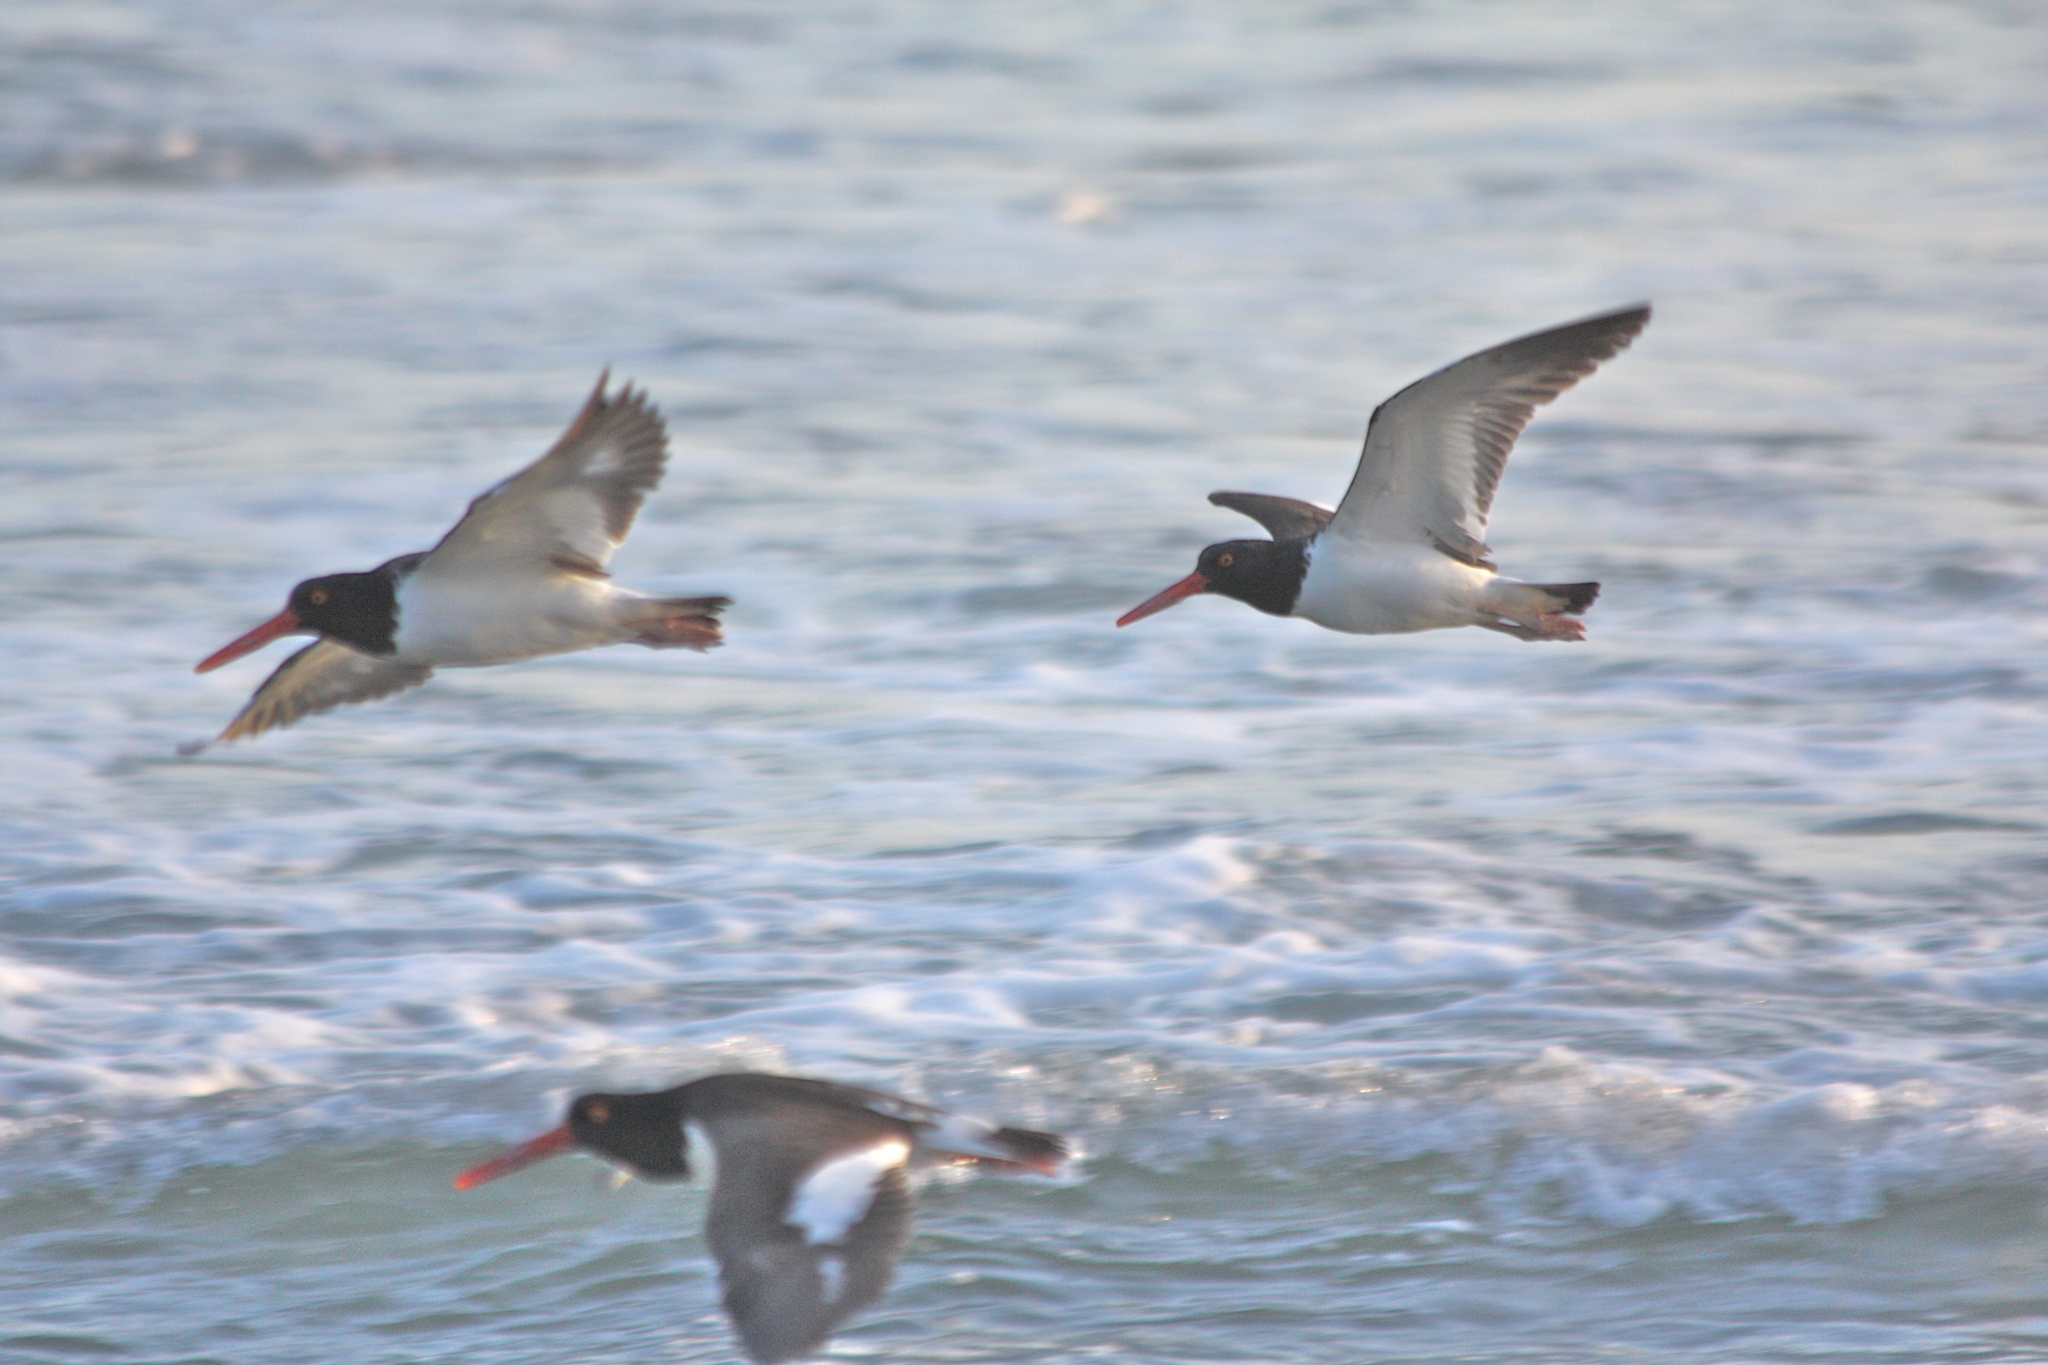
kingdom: Animalia
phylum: Chordata
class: Aves
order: Charadriiformes
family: Haematopodidae
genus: Haematopus
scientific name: Haematopus palliatus
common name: American oystercatcher
